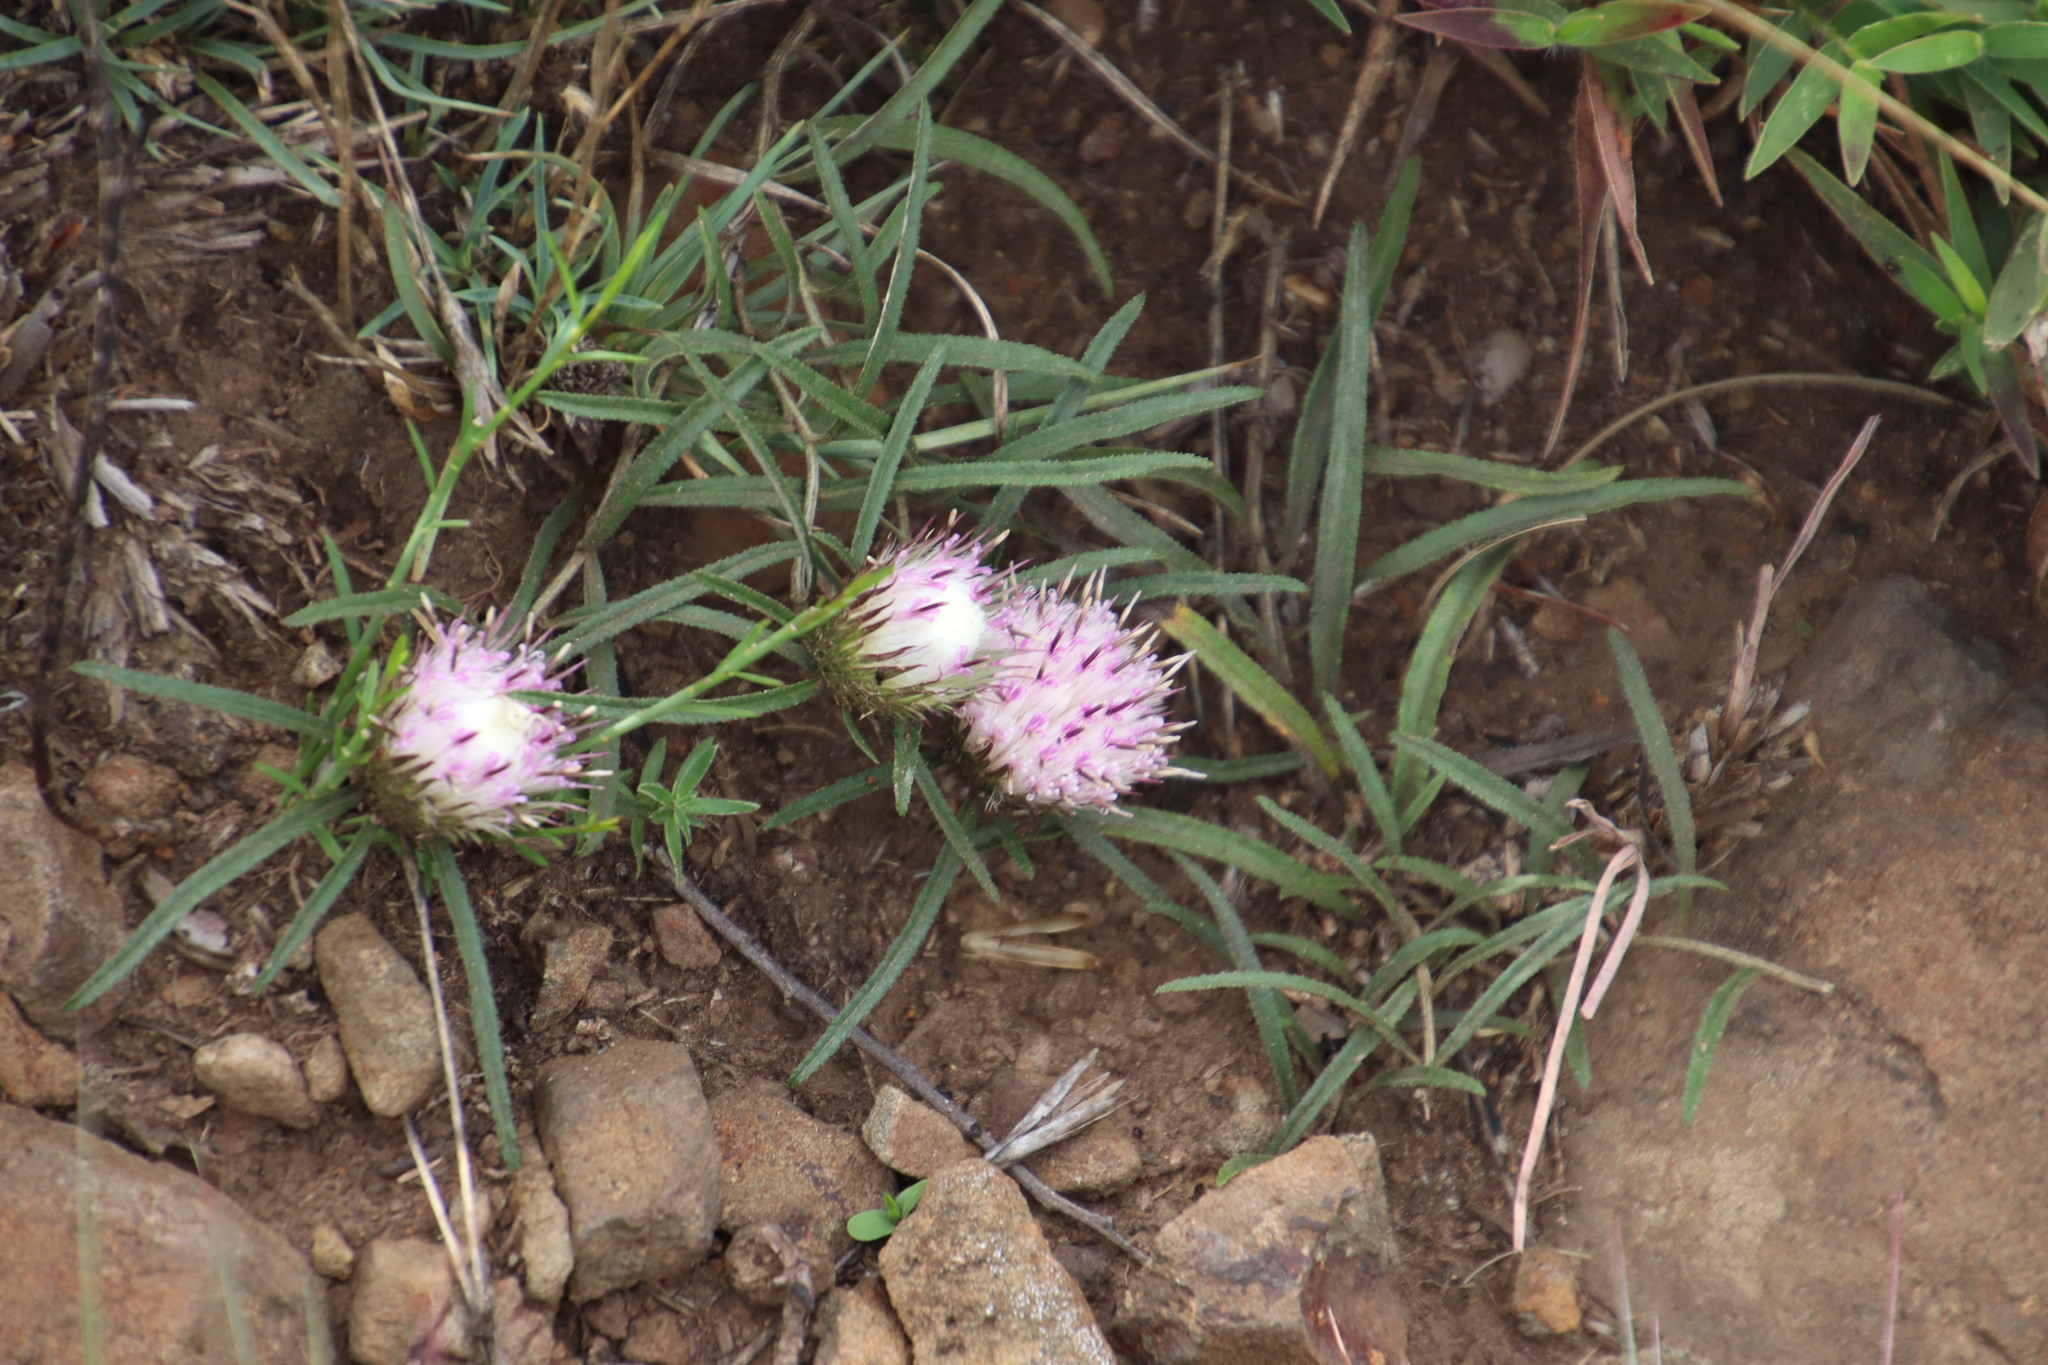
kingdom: Plantae
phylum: Tracheophyta
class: Magnoliopsida
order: Asterales
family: Asteraceae
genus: Dicoma
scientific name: Dicoma anomala
